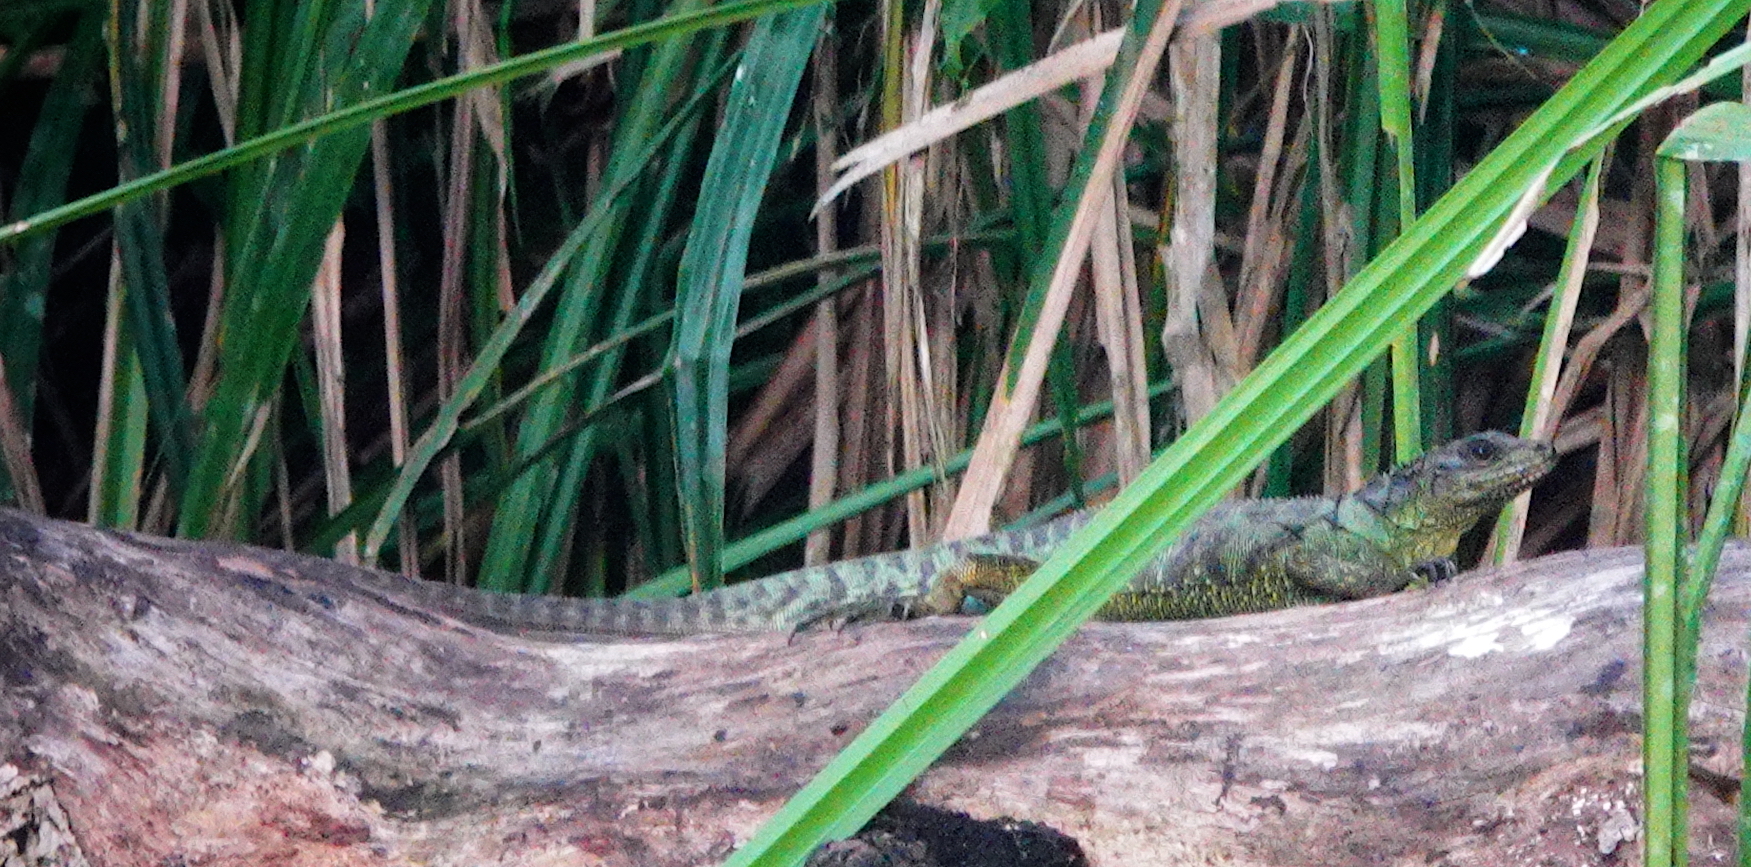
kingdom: Animalia
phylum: Chordata
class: Squamata
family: Agamidae
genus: Hydrosaurus
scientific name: Hydrosaurus amboinensis
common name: Sailfin lizard
